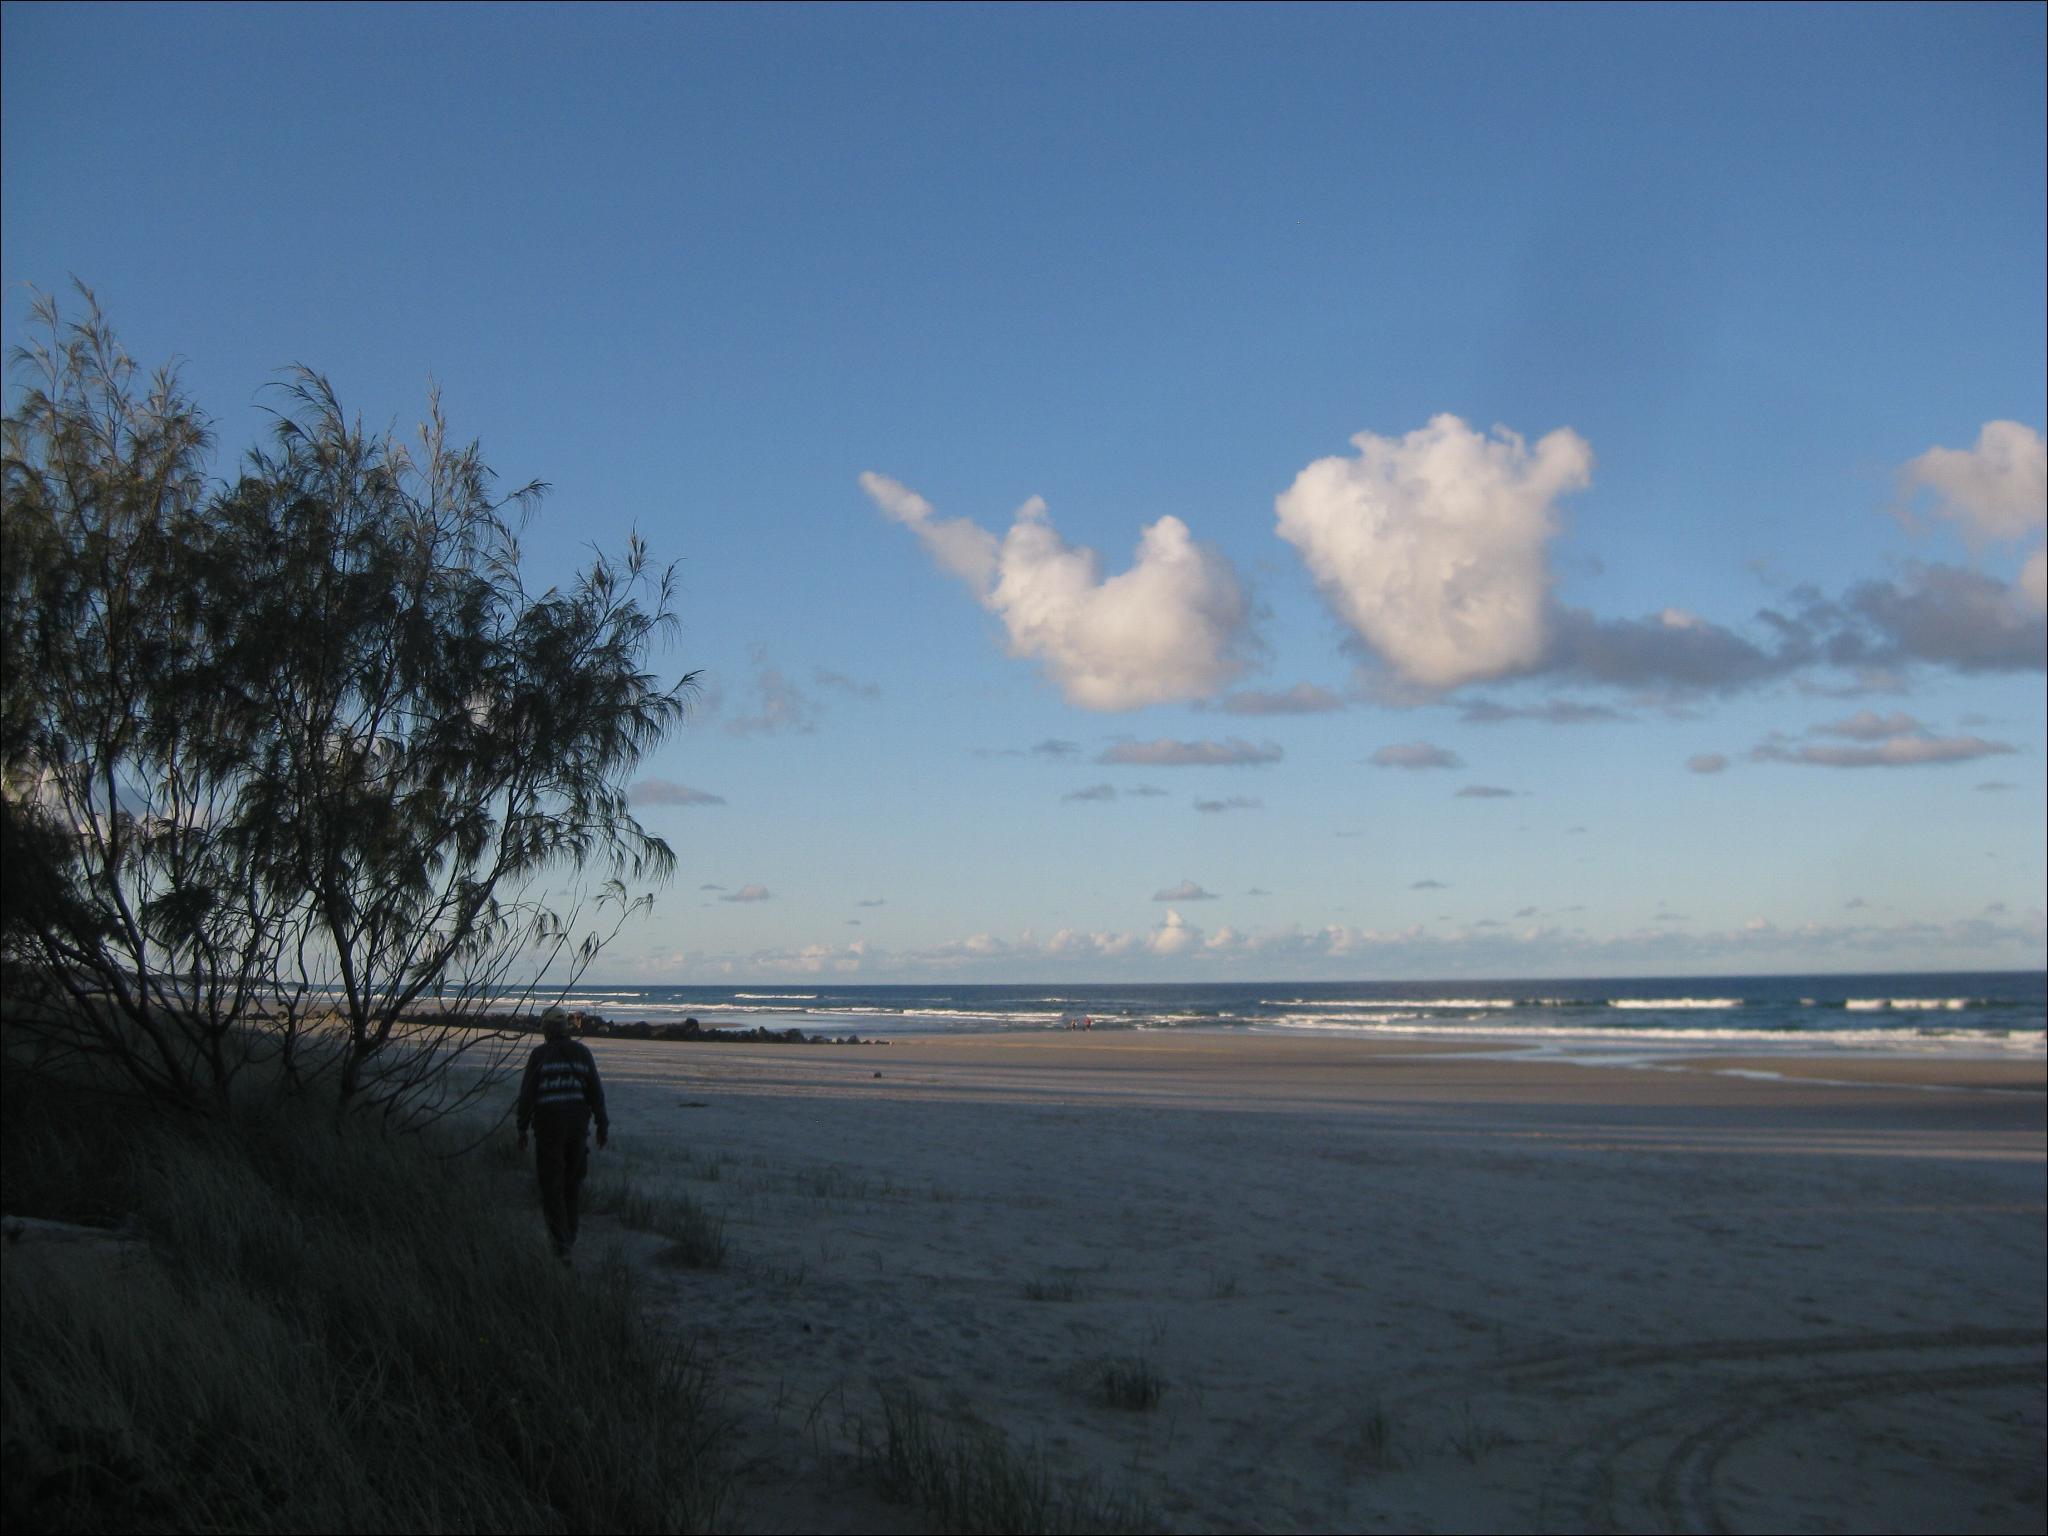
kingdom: Plantae
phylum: Tracheophyta
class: Liliopsida
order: Poales
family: Poaceae
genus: Spinifex
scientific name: Spinifex sericeus
